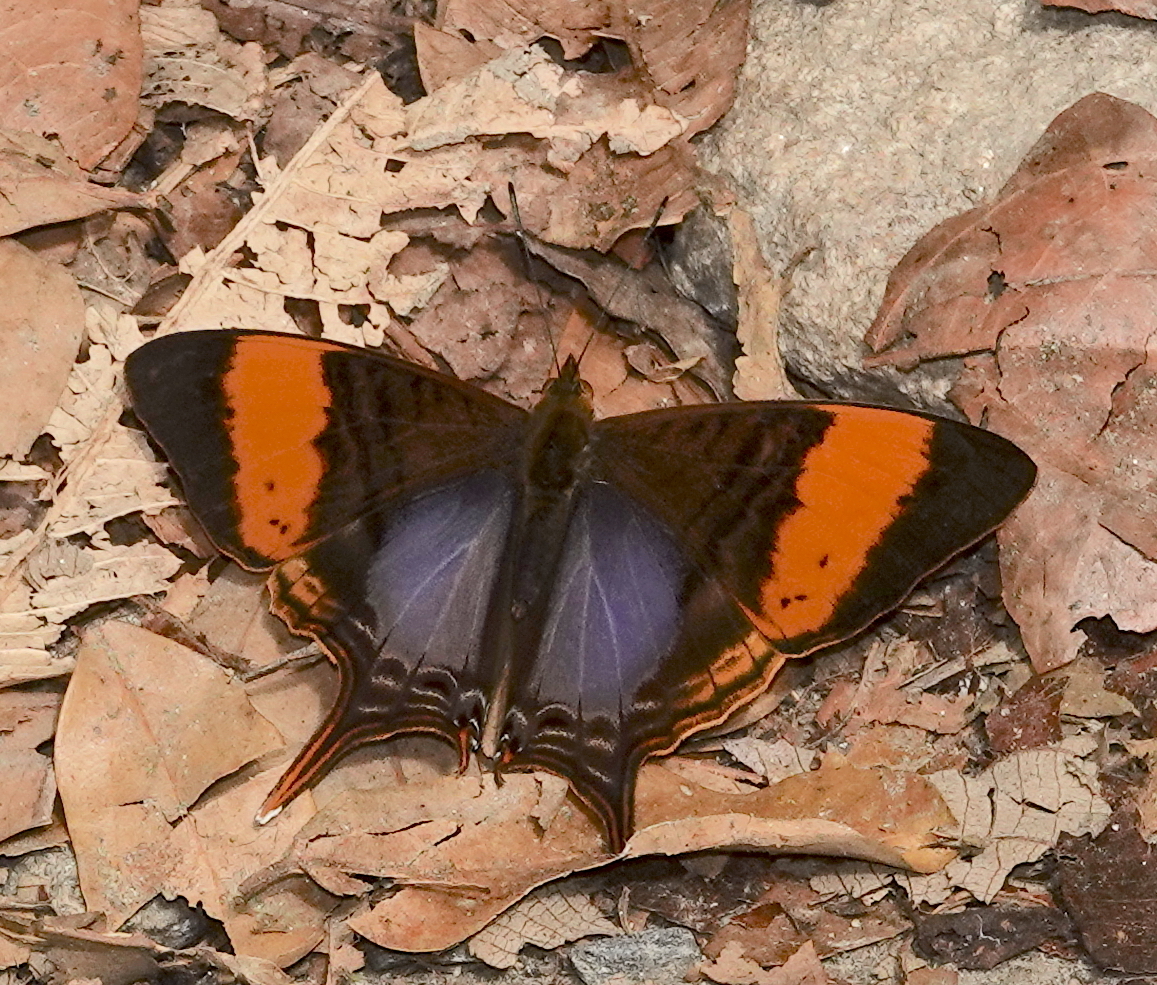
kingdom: Animalia
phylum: Arthropoda
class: Insecta
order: Lepidoptera
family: Nymphalidae
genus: Marpesia
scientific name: Marpesia corinna
